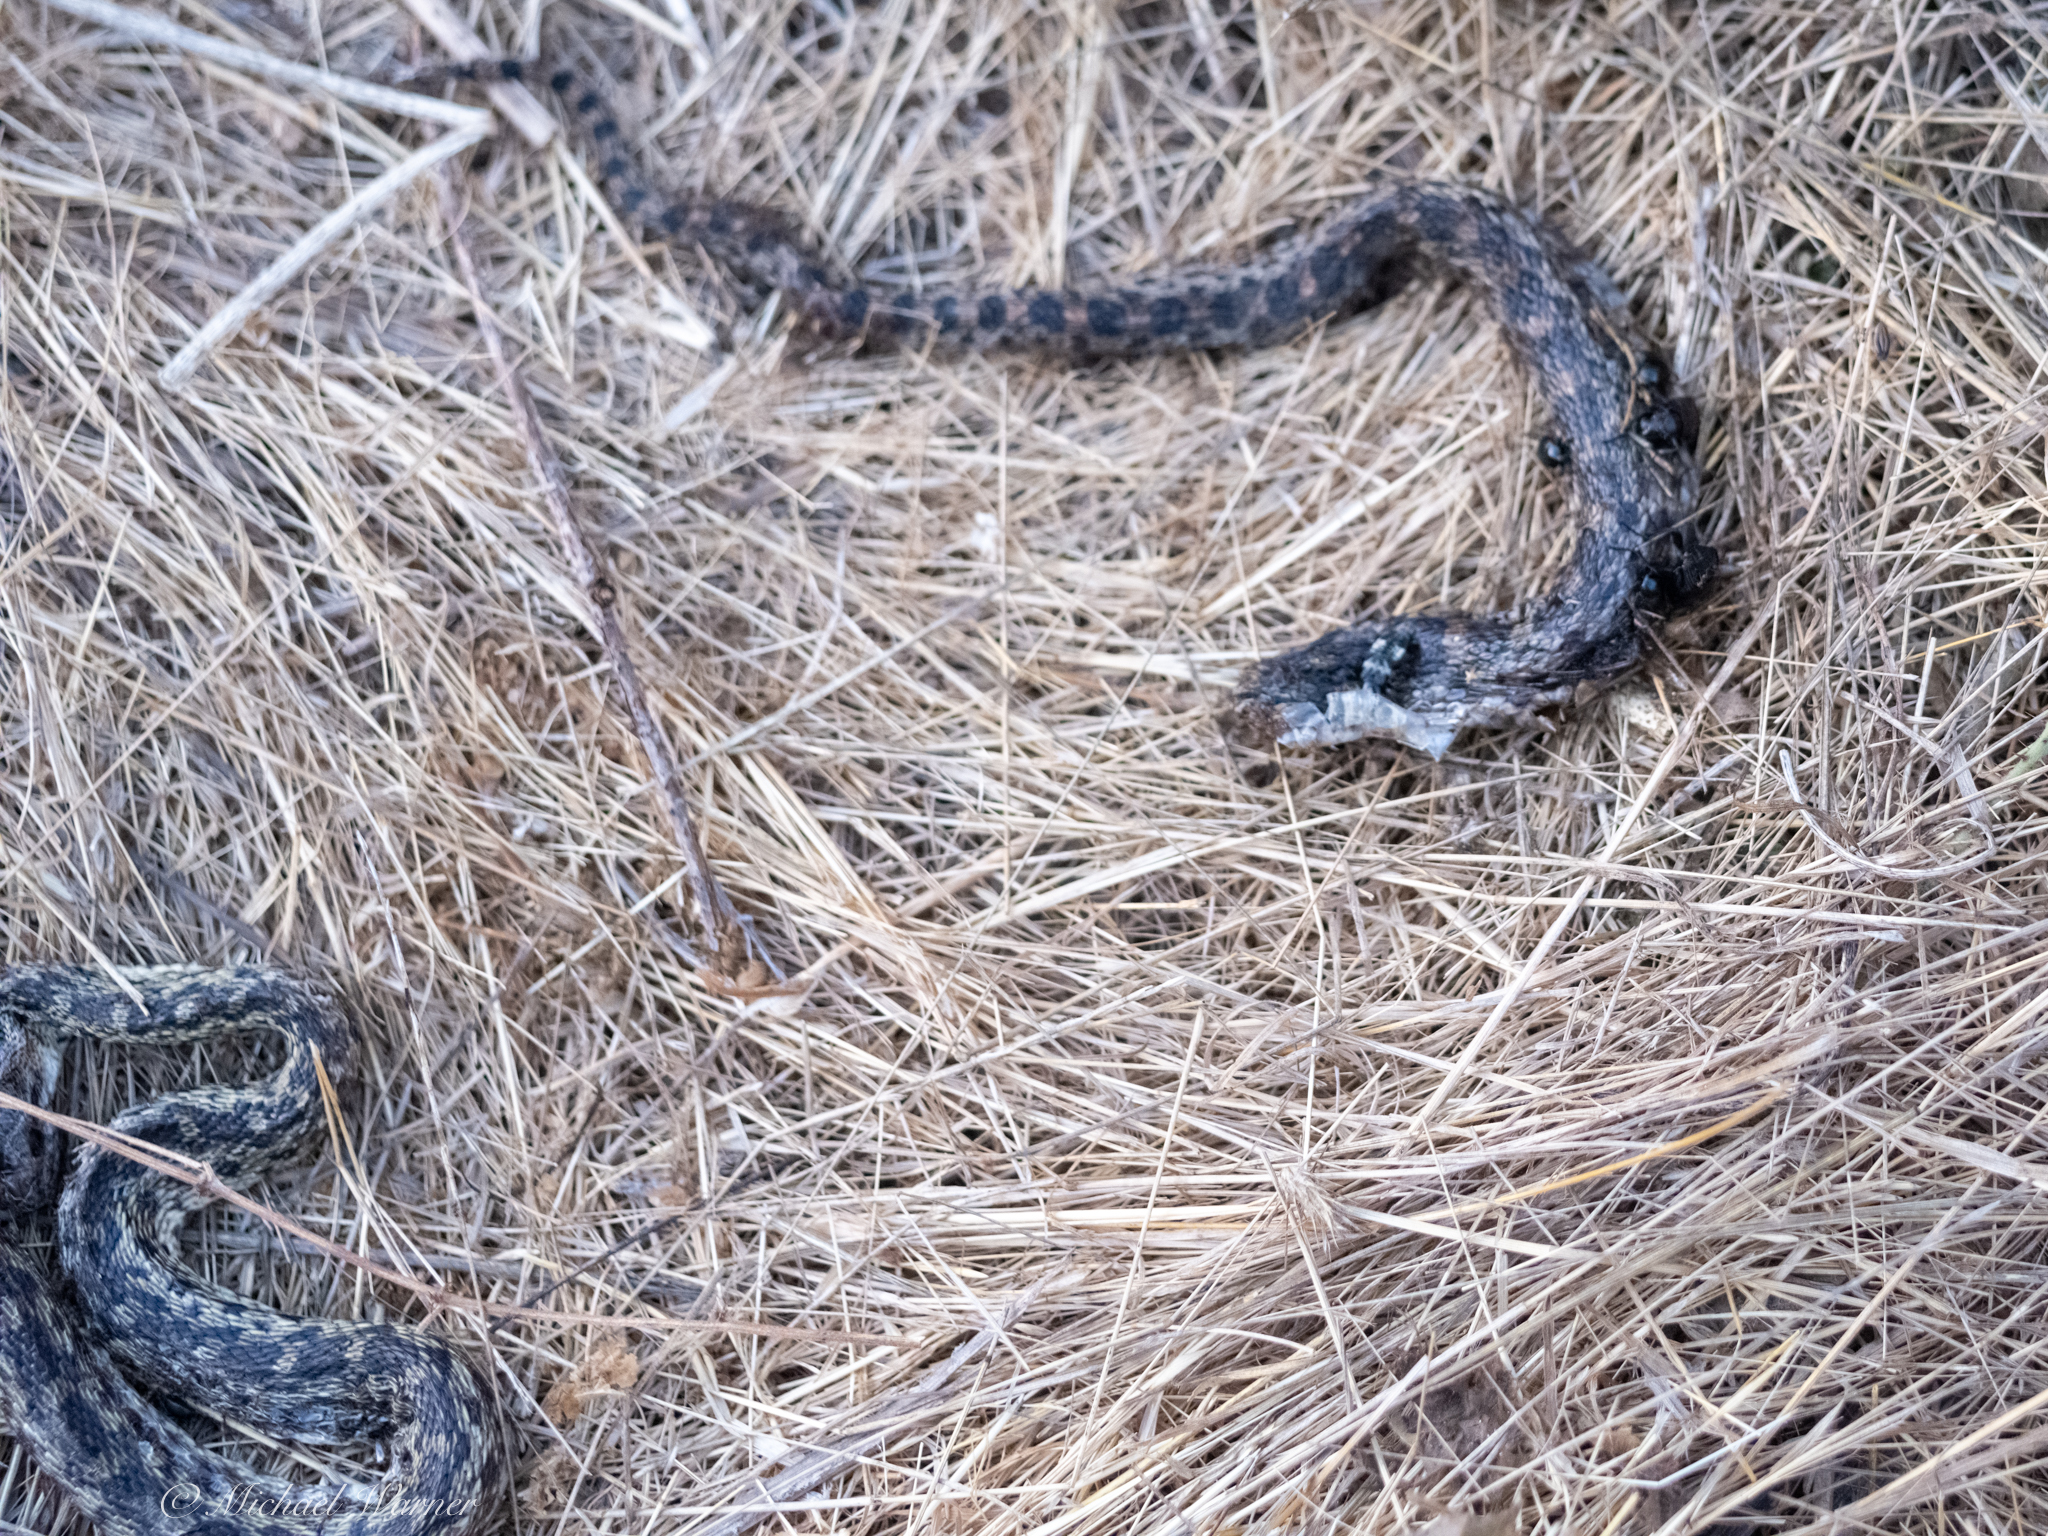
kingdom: Animalia
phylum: Chordata
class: Squamata
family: Colubridae
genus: Pituophis
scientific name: Pituophis catenifer
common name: Gopher snake
